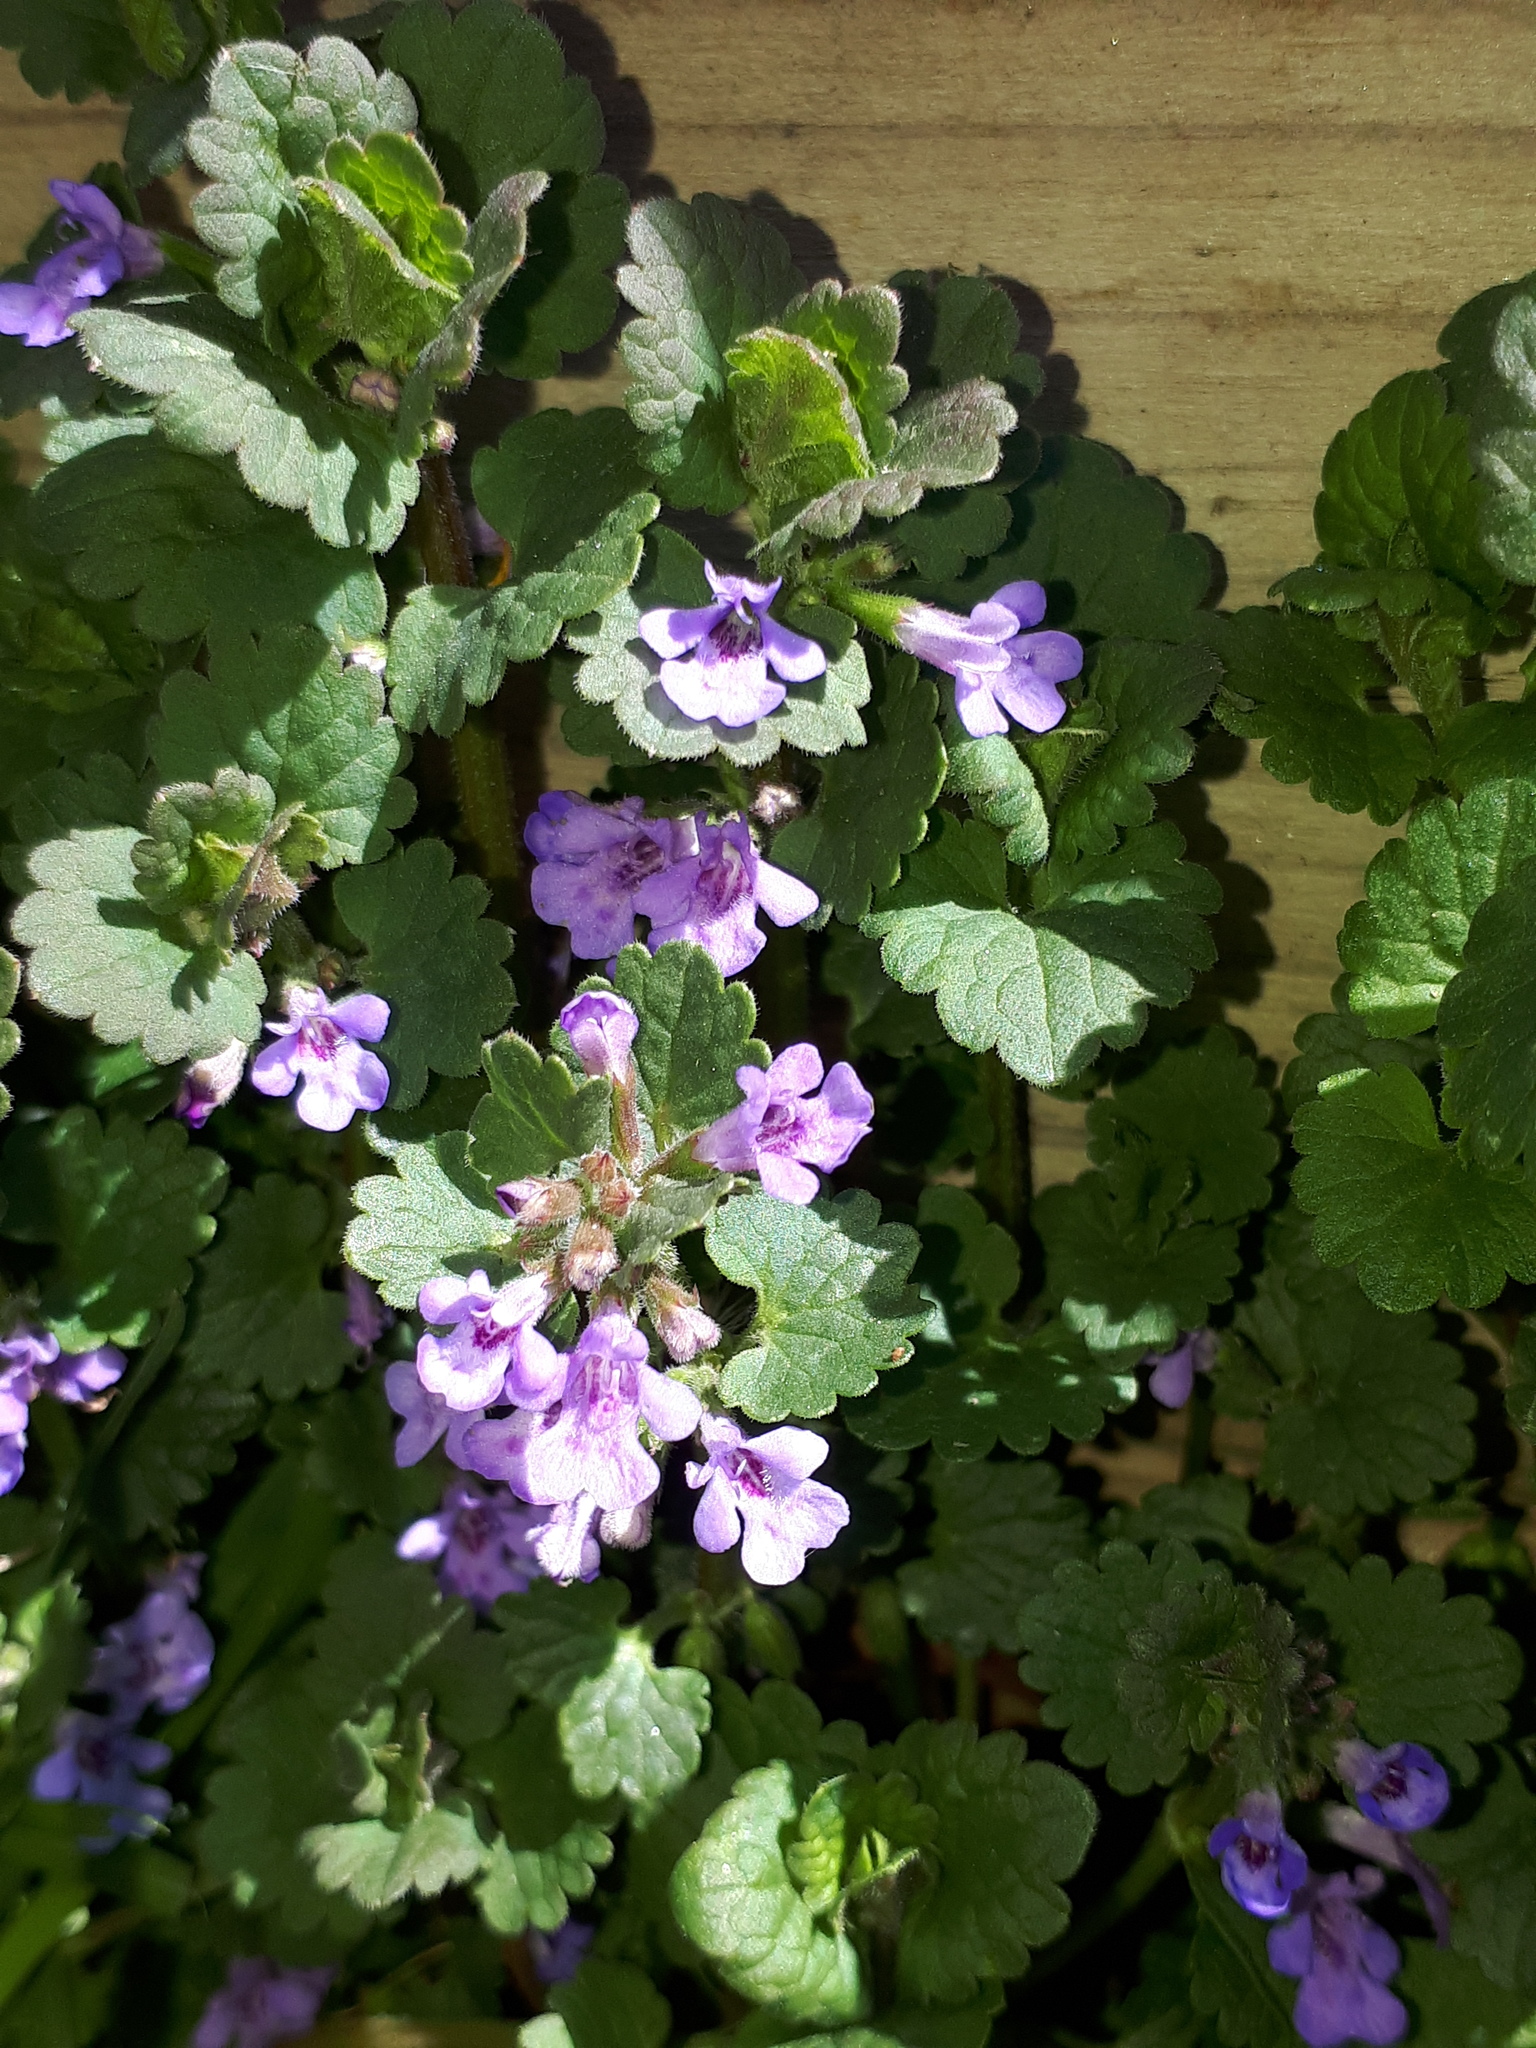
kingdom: Plantae
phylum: Tracheophyta
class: Magnoliopsida
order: Lamiales
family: Lamiaceae
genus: Glechoma
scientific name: Glechoma hederacea
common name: Ground ivy
